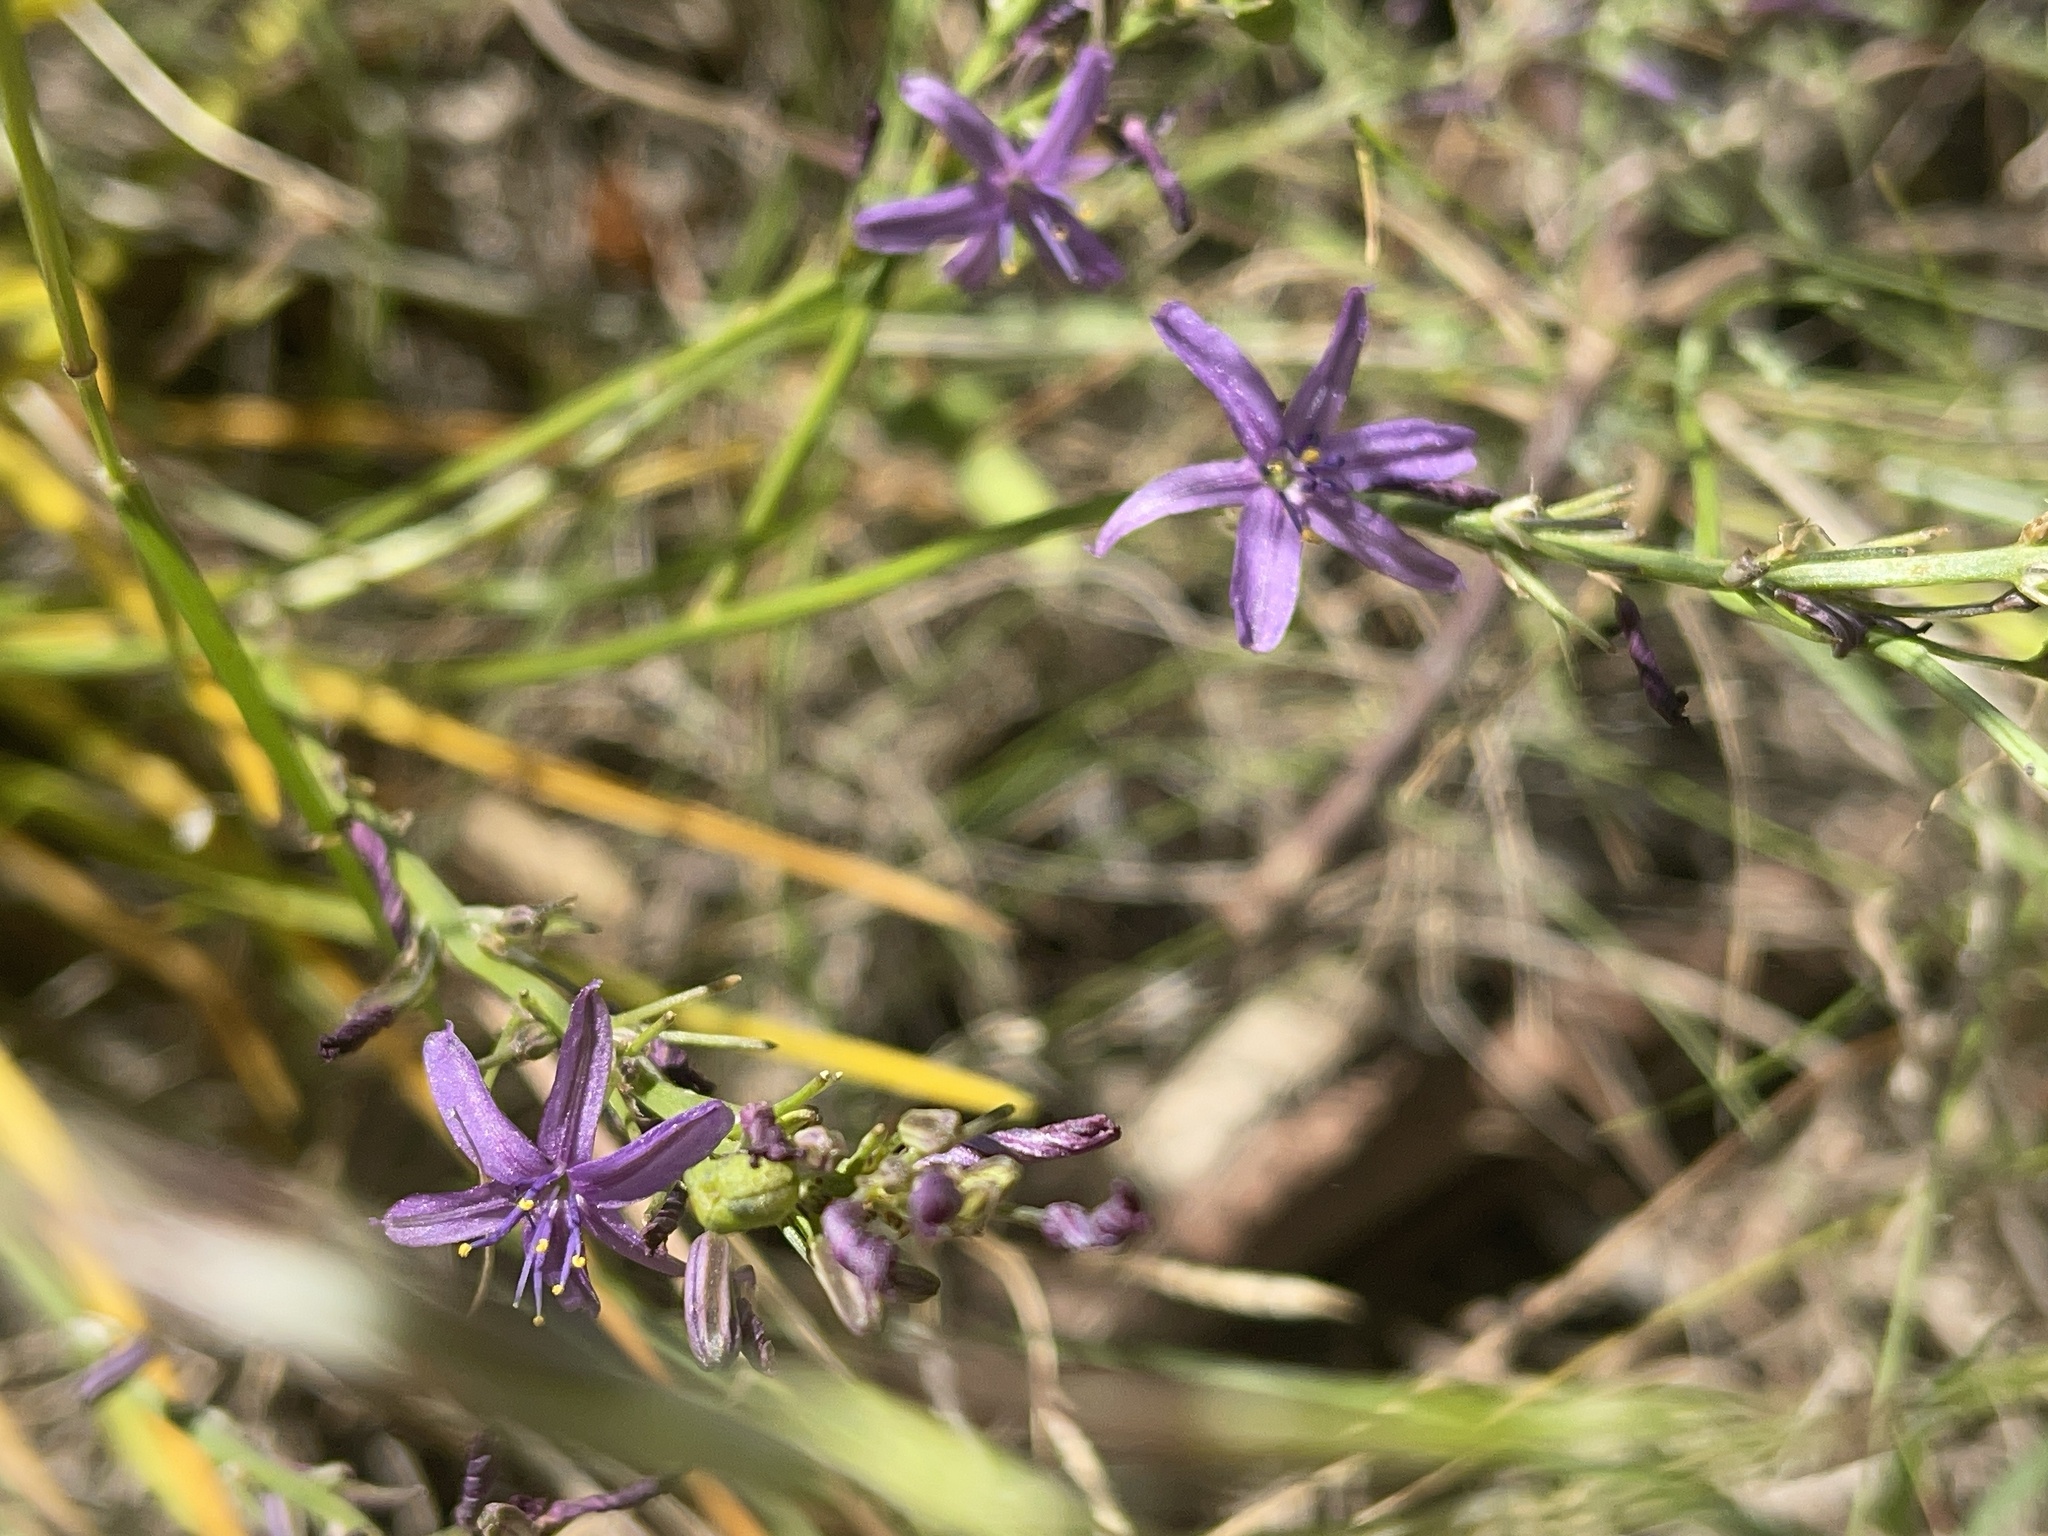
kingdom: Plantae
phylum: Tracheophyta
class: Liliopsida
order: Asparagales
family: Asphodelaceae
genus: Caesia
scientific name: Caesia calliantha
